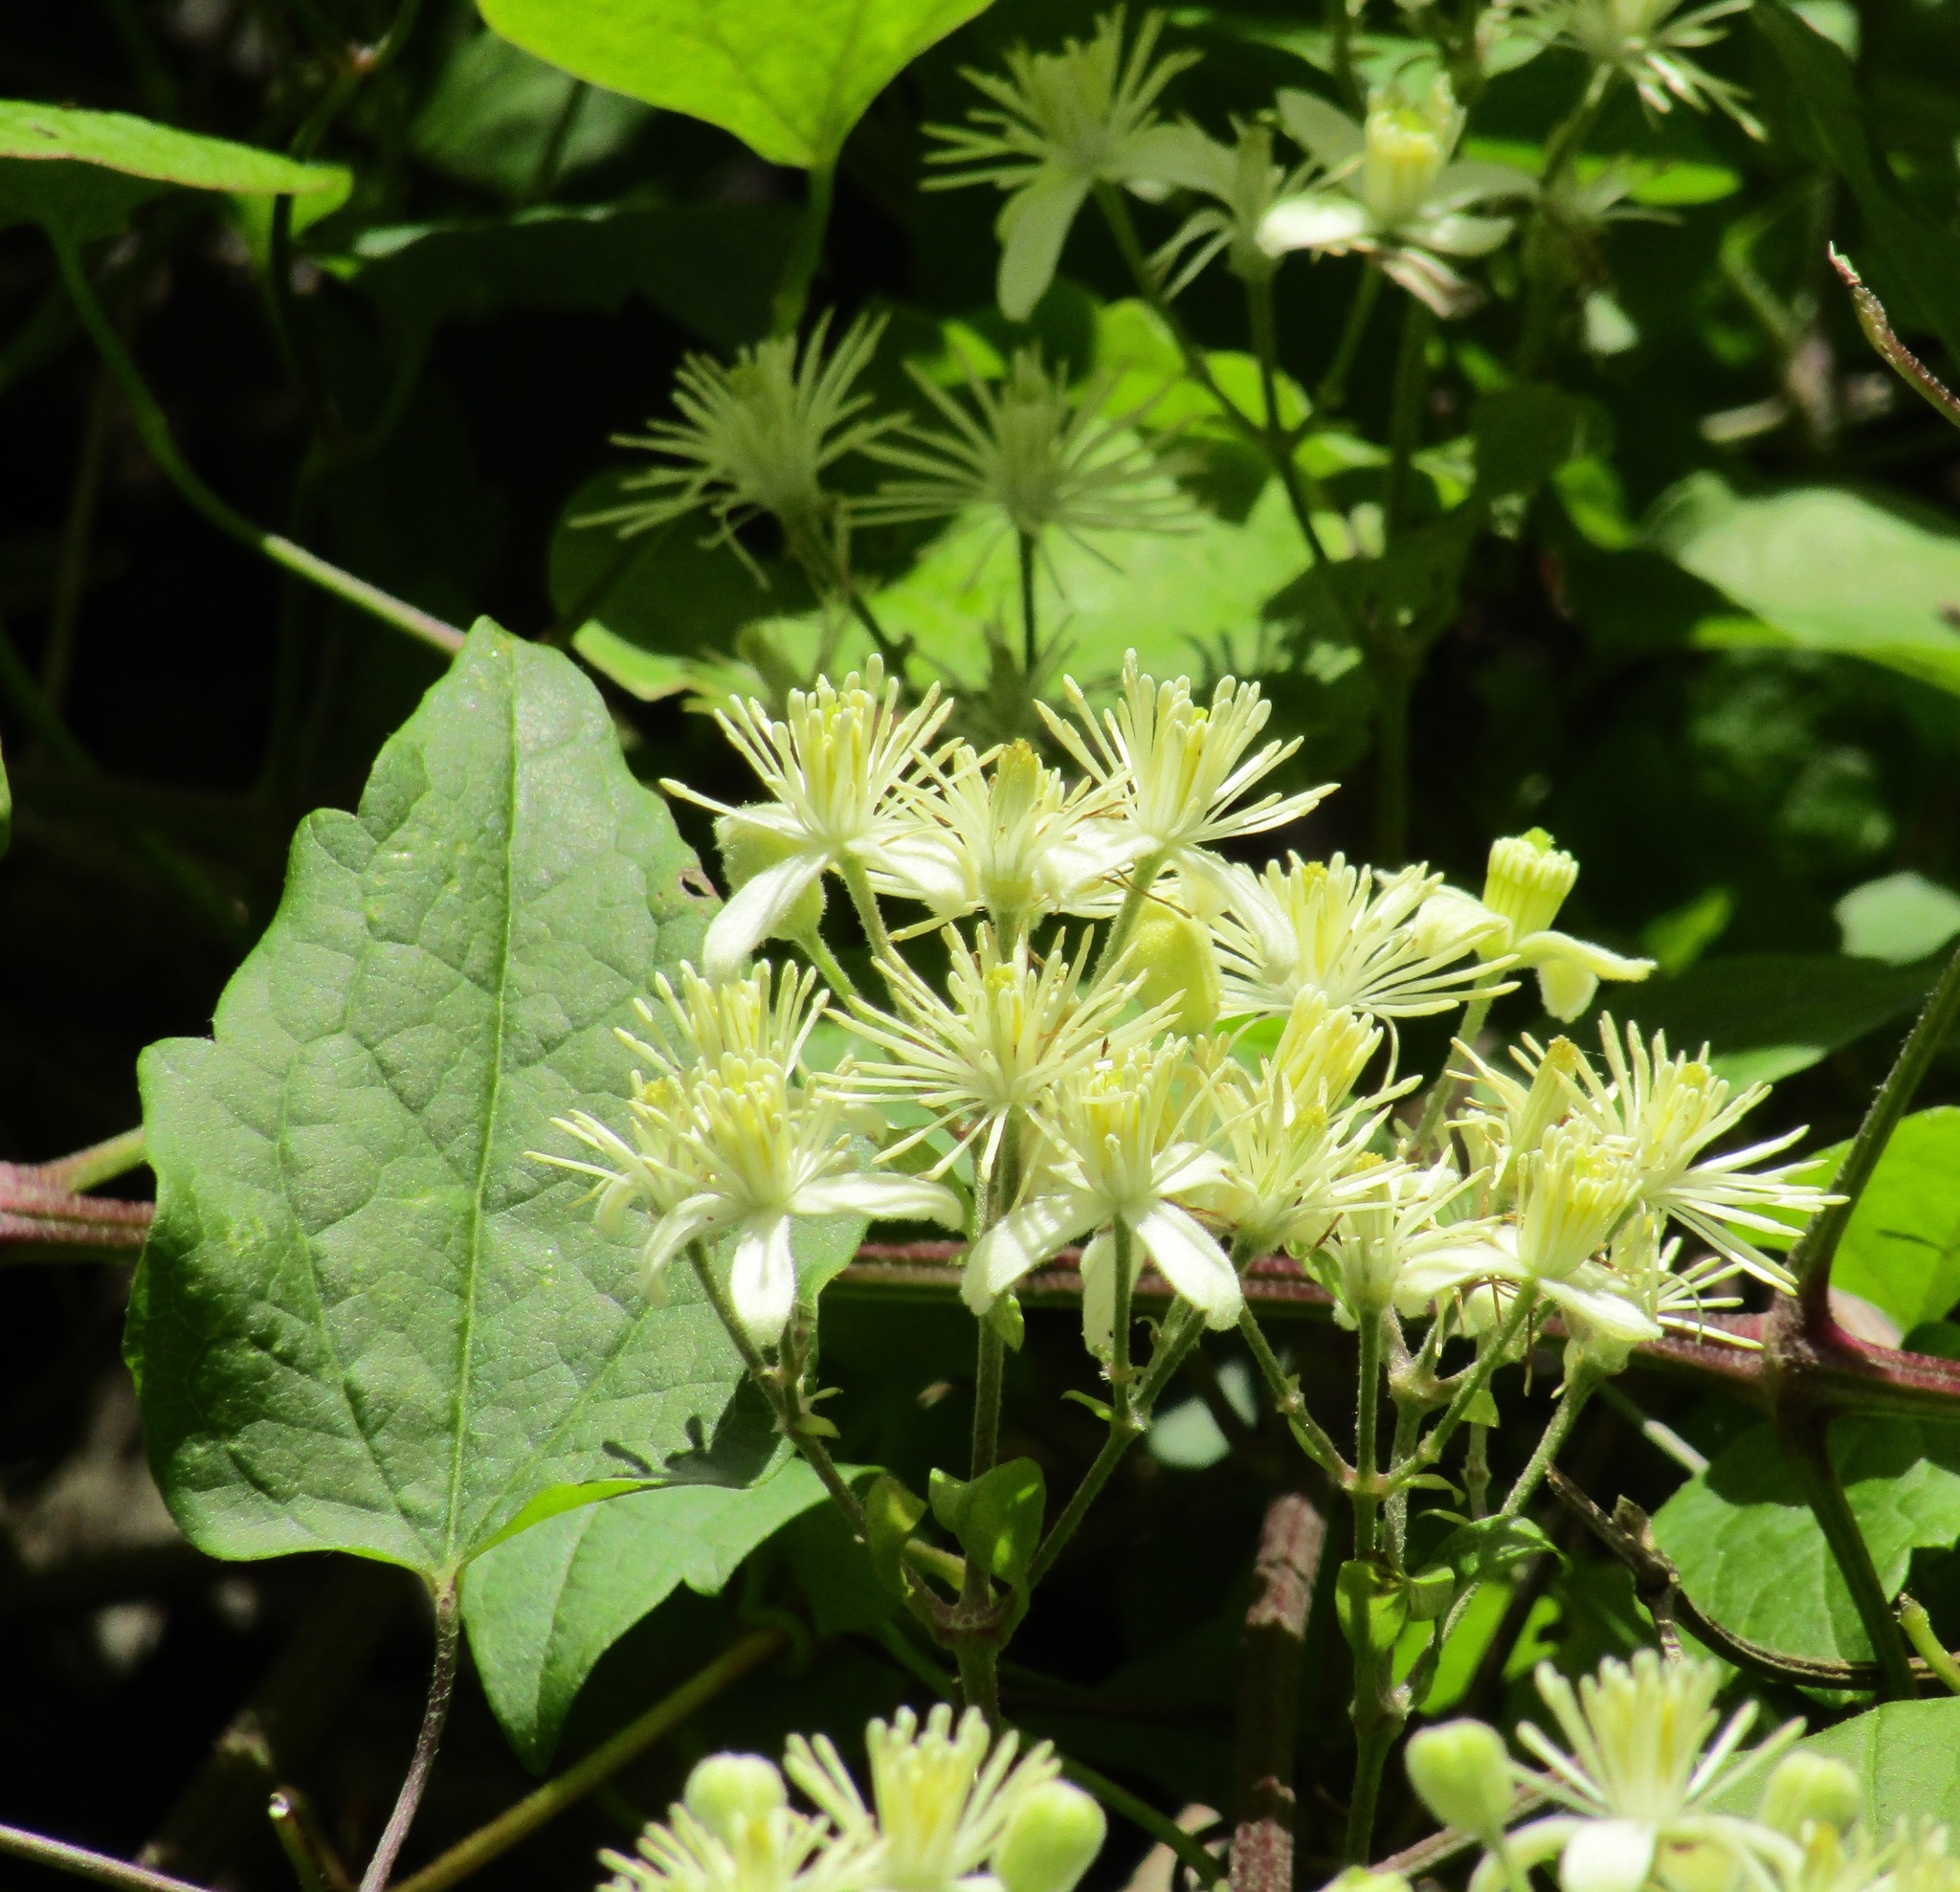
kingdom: Plantae
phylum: Tracheophyta
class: Magnoliopsida
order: Ranunculales
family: Ranunculaceae
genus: Clematis
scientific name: Clematis vitalba
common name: Evergreen clematis
